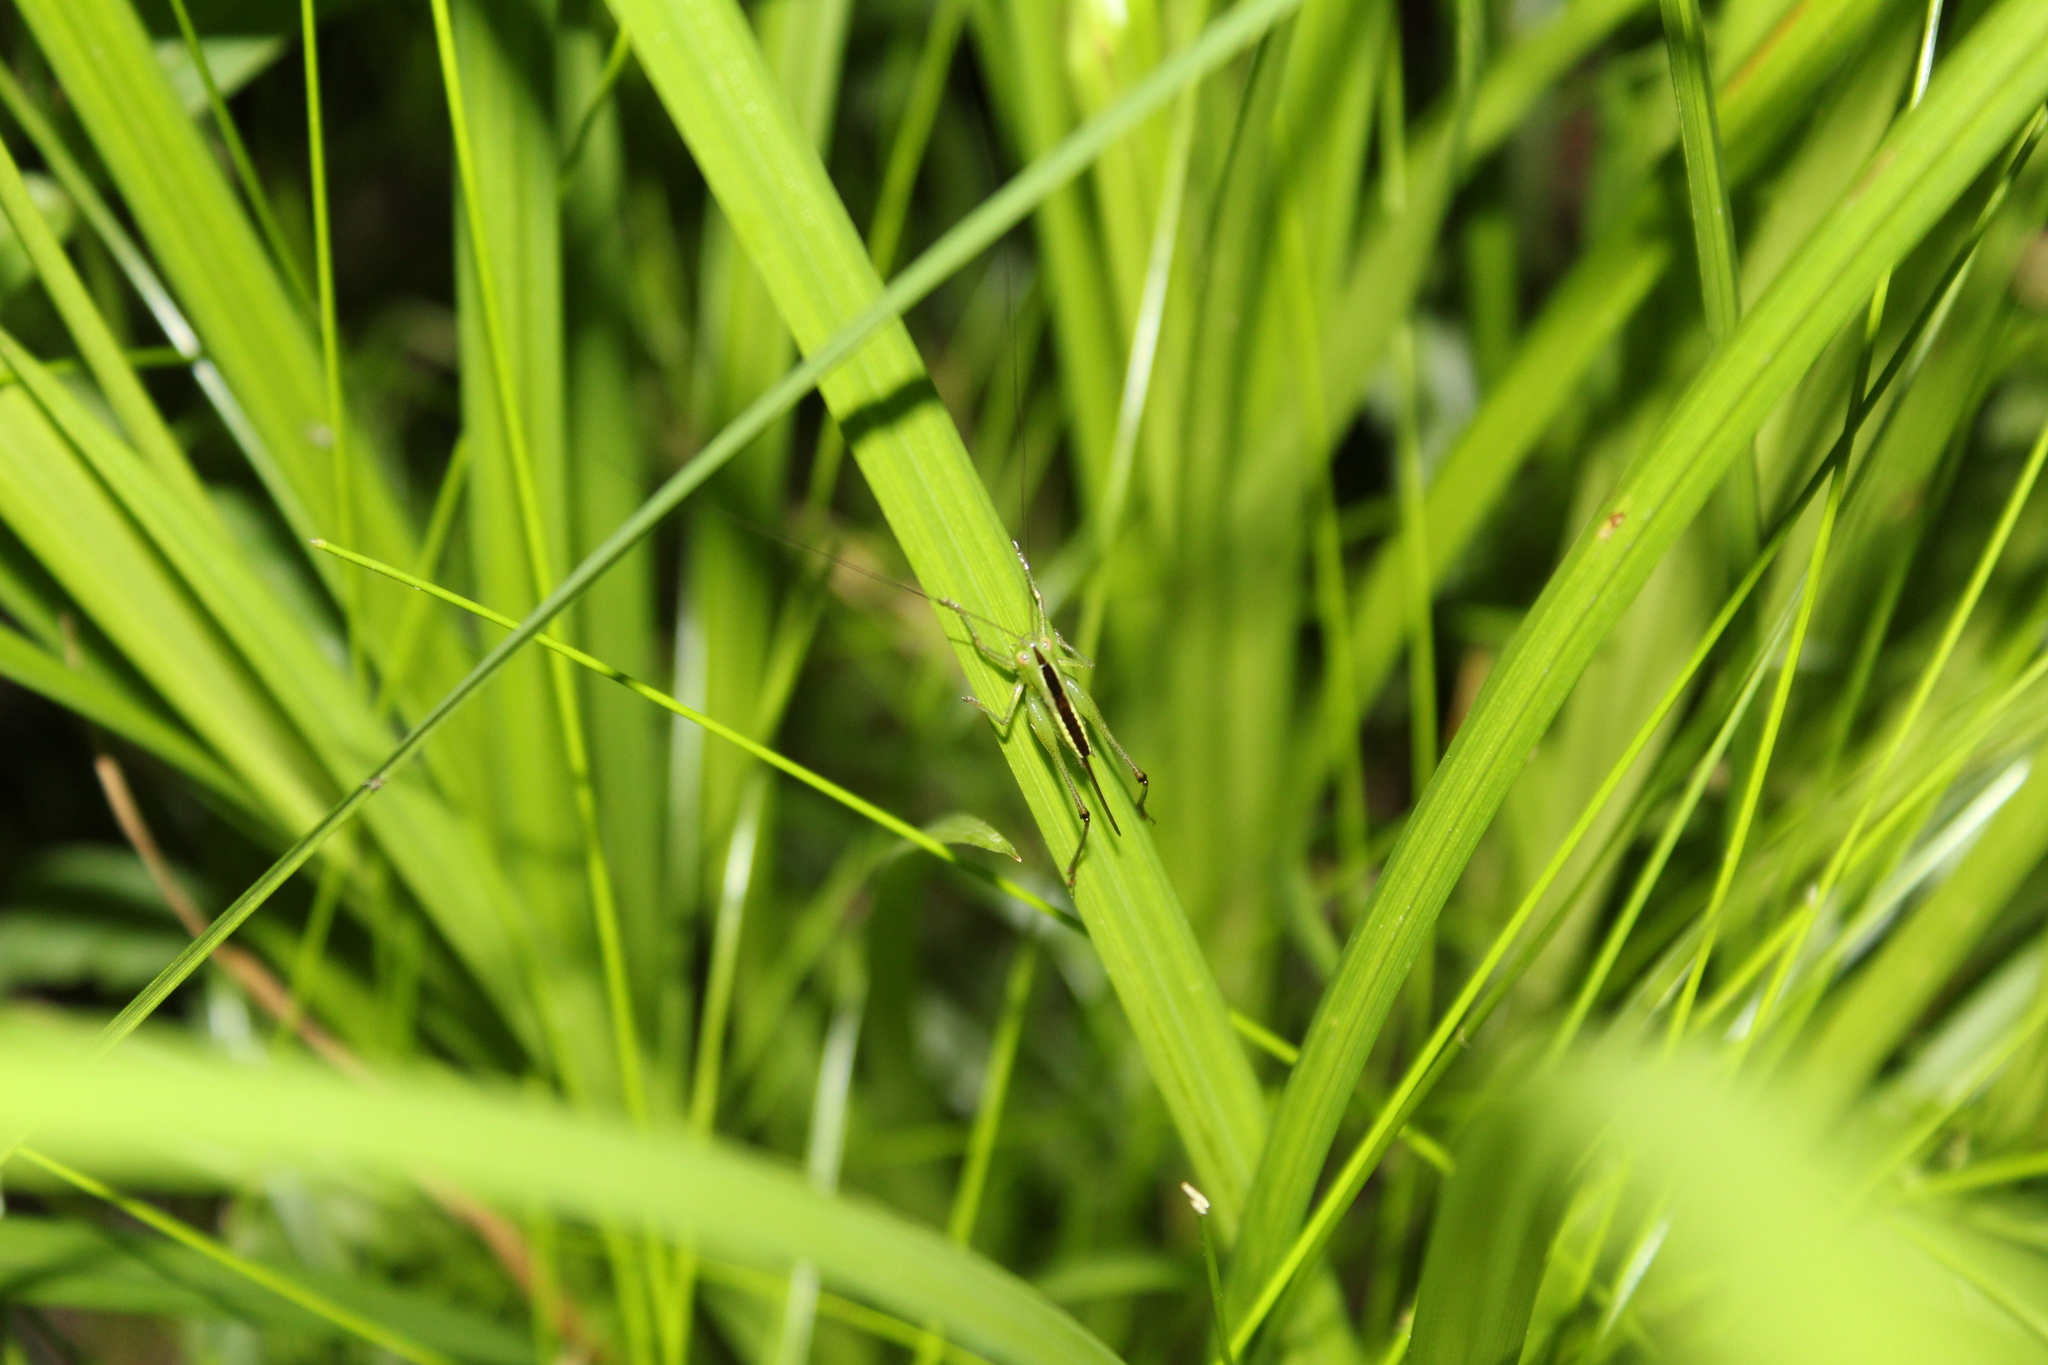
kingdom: Animalia
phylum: Arthropoda
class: Insecta
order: Orthoptera
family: Tettigoniidae
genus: Conocephalus
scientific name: Conocephalus
